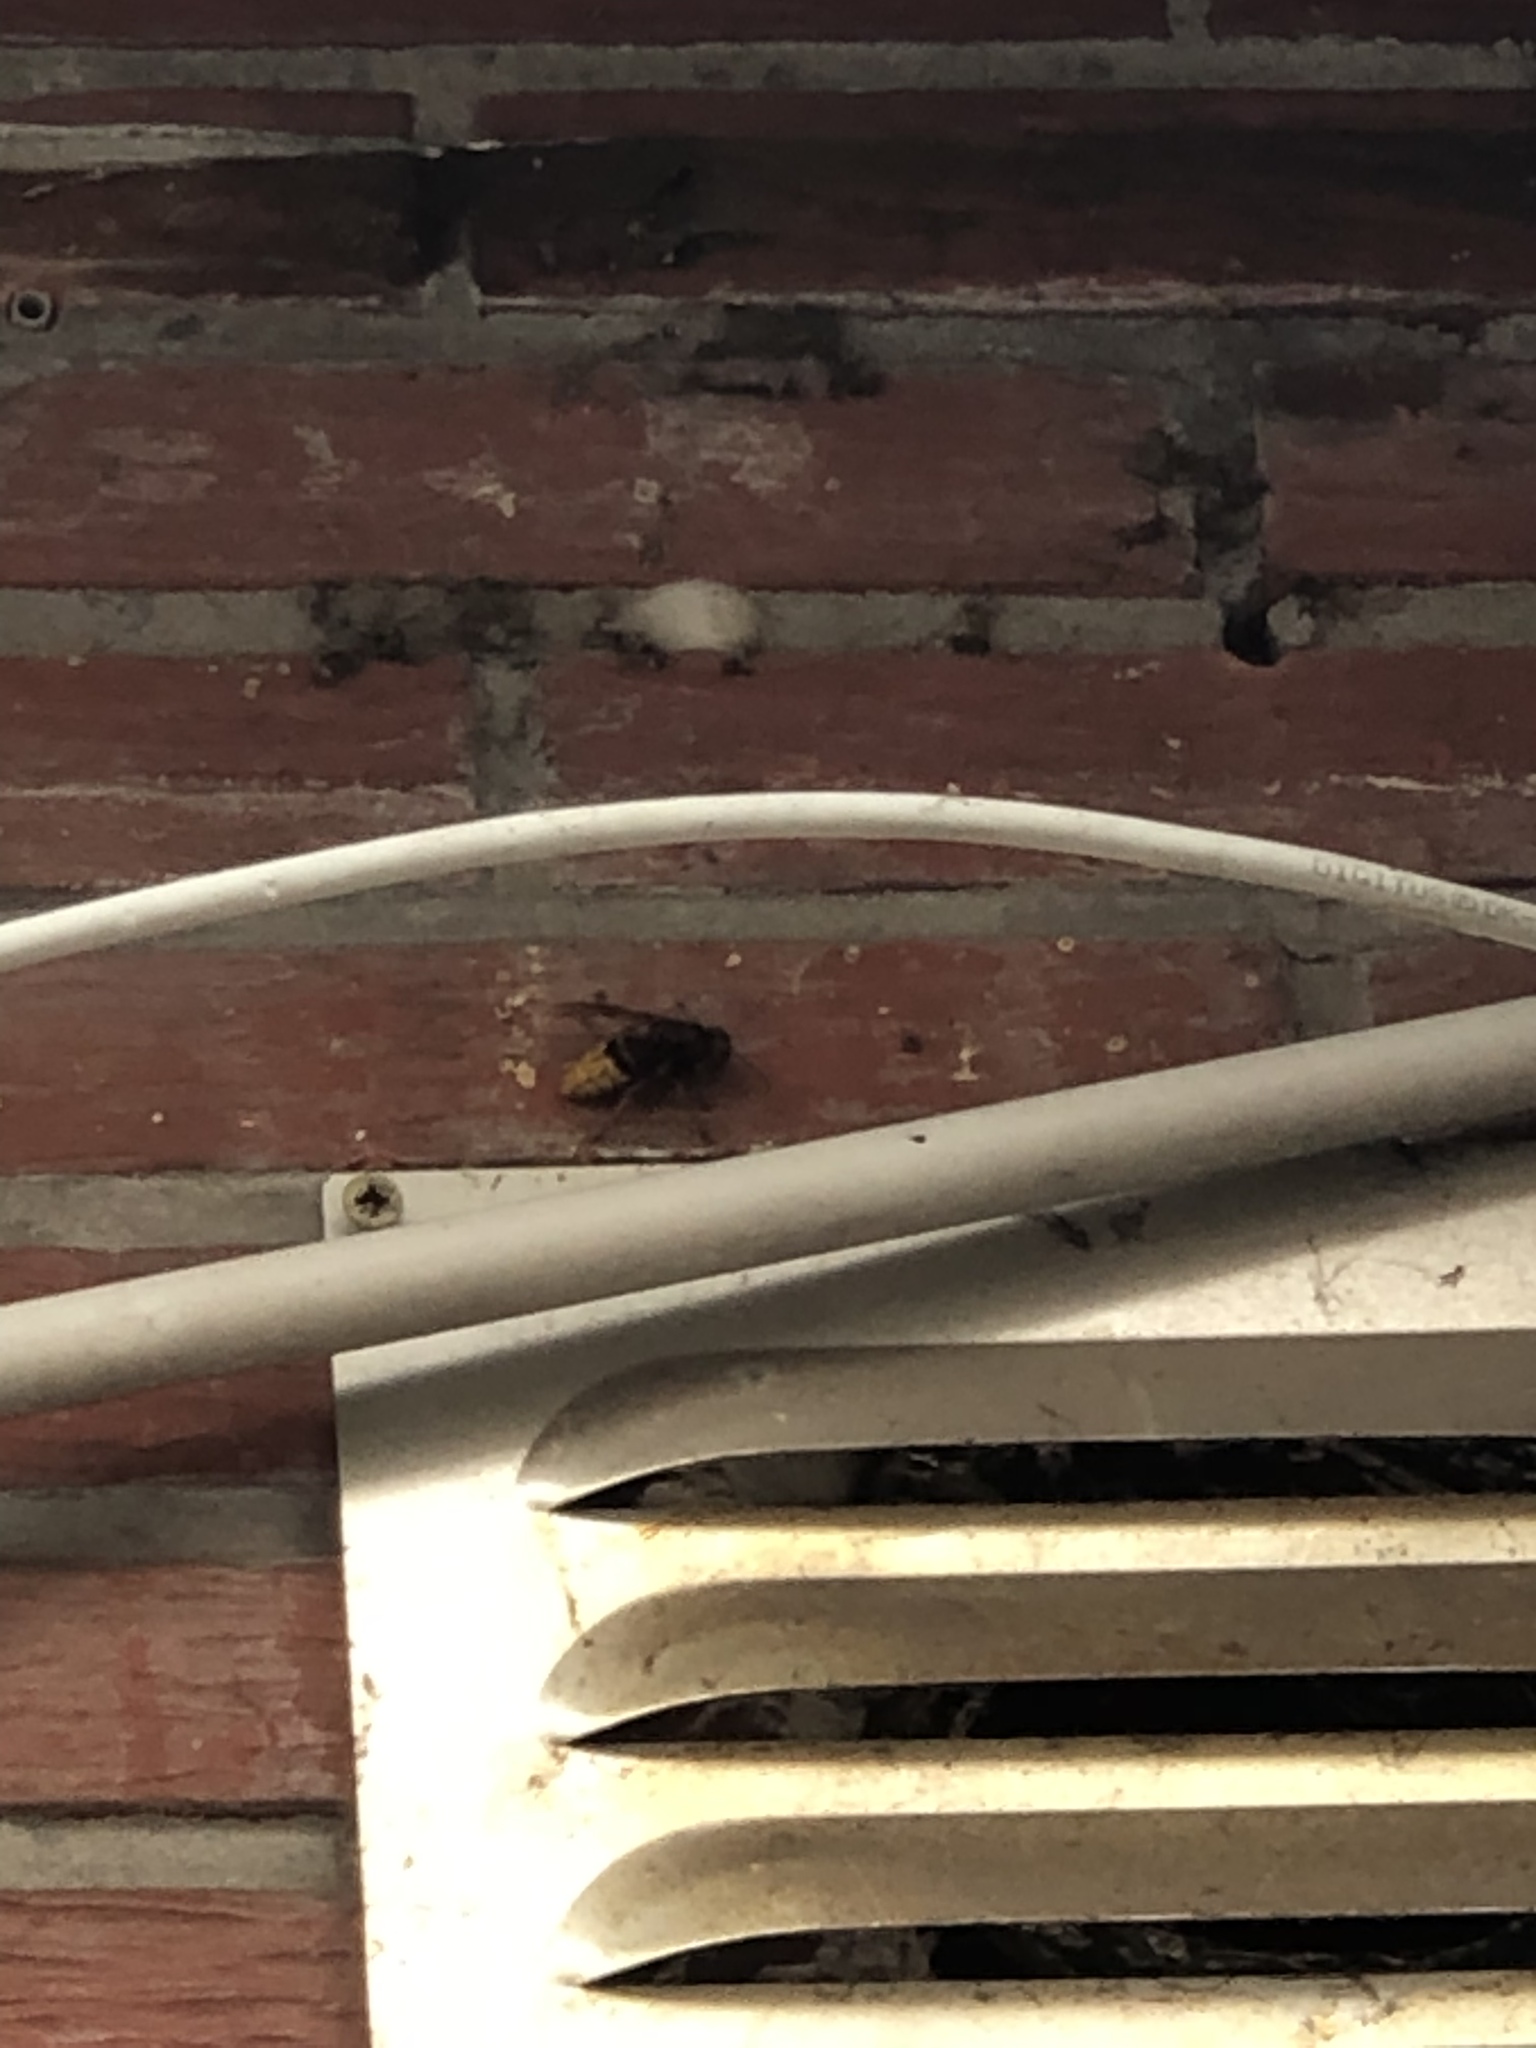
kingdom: Animalia
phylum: Arthropoda
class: Insecta
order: Hymenoptera
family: Vespidae
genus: Vespa
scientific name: Vespa crabro
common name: Hornet
